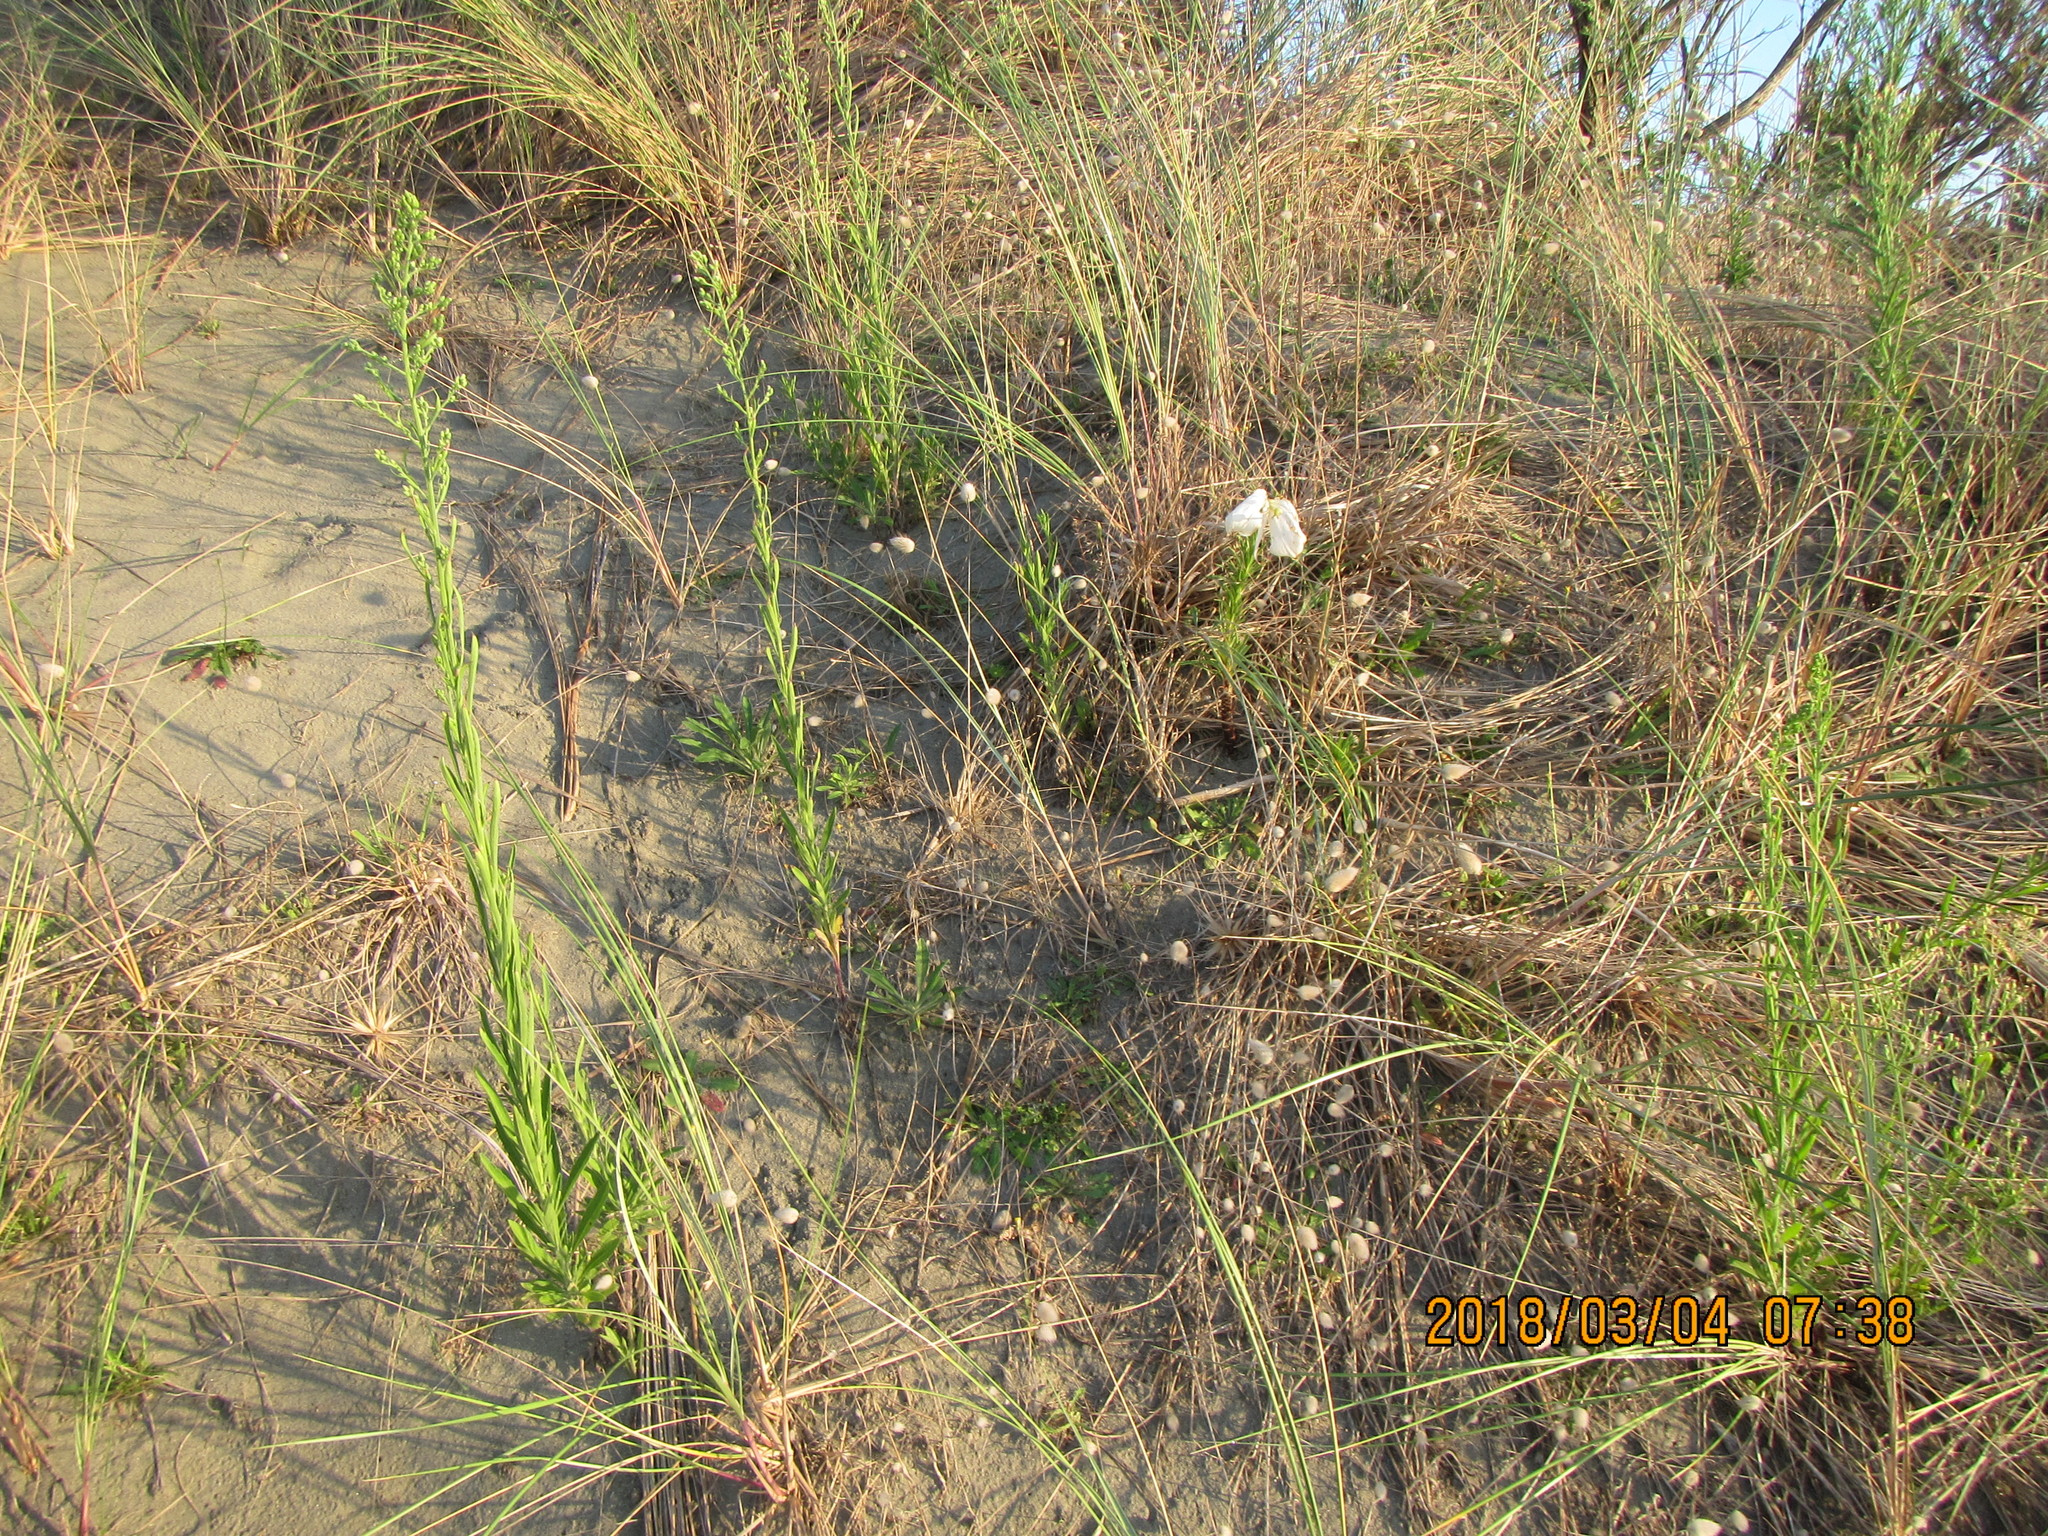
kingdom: Plantae
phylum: Tracheophyta
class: Liliopsida
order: Liliales
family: Liliaceae
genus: Lilium
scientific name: Lilium formosanum
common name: Formosa lily
